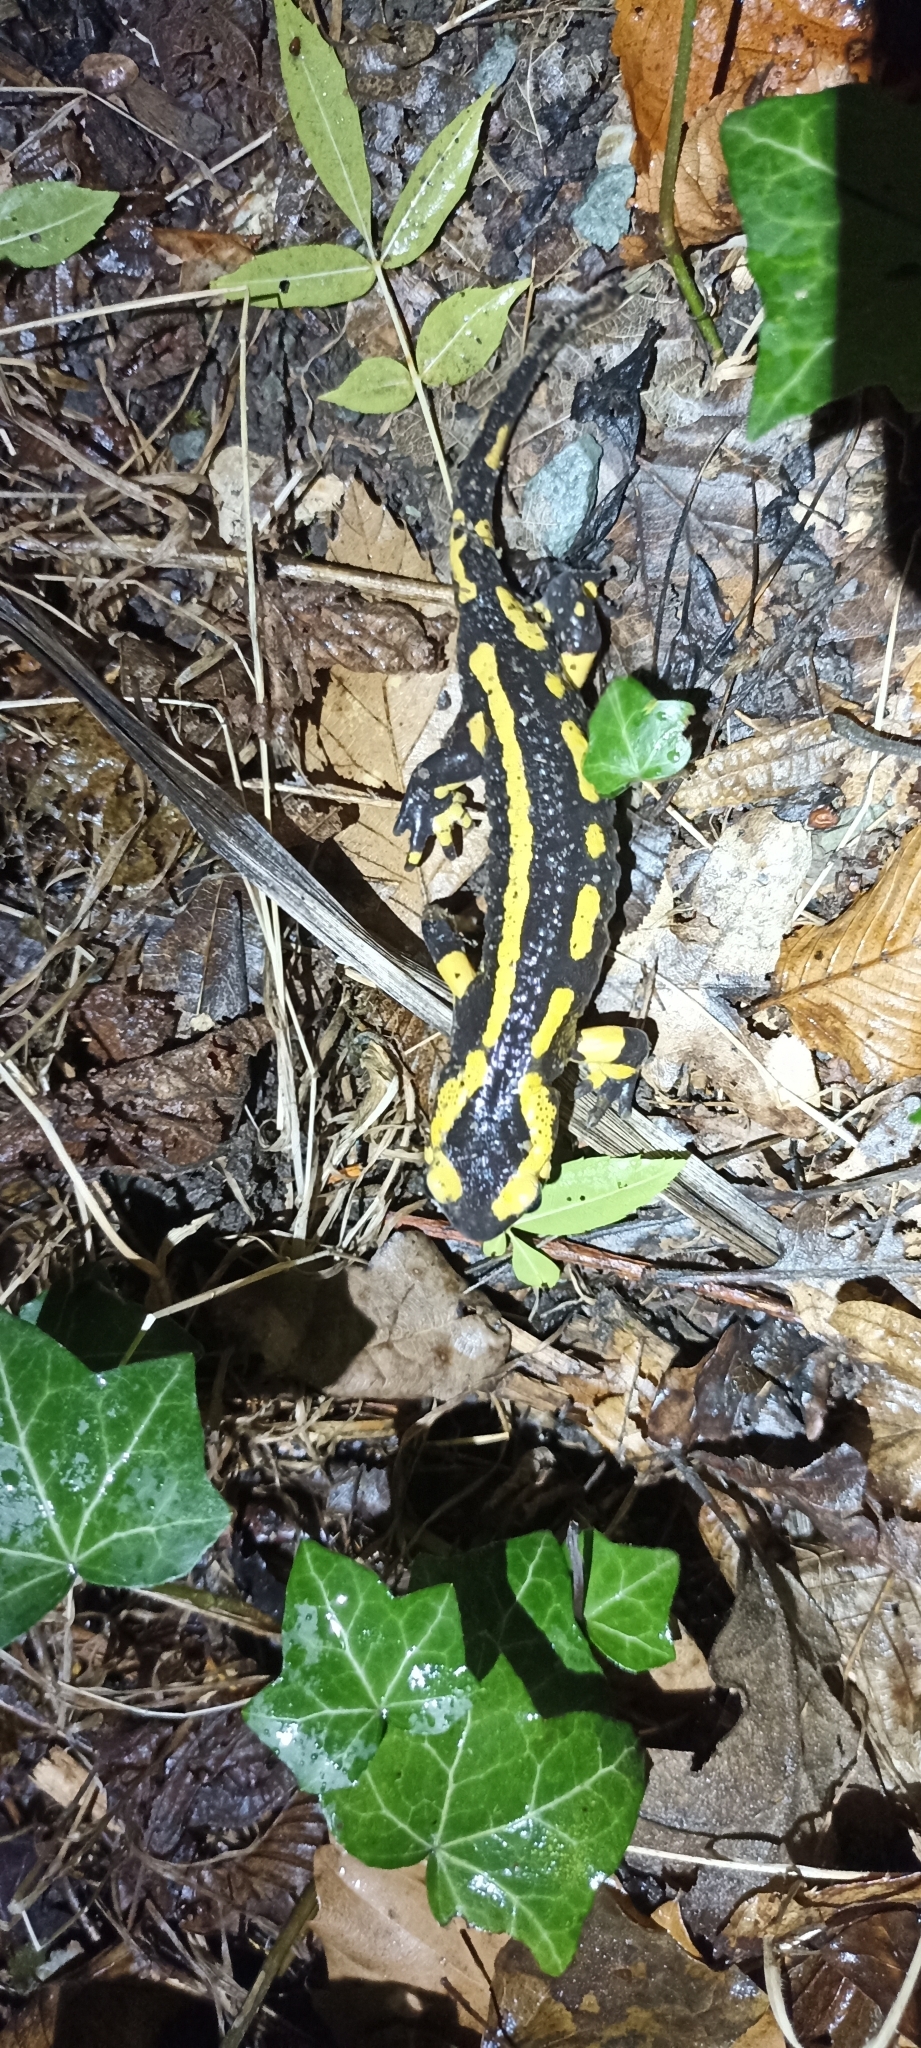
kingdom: Animalia
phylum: Chordata
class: Amphibia
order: Caudata
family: Salamandridae
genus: Salamandra
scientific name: Salamandra salamandra
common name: Fire salamander
